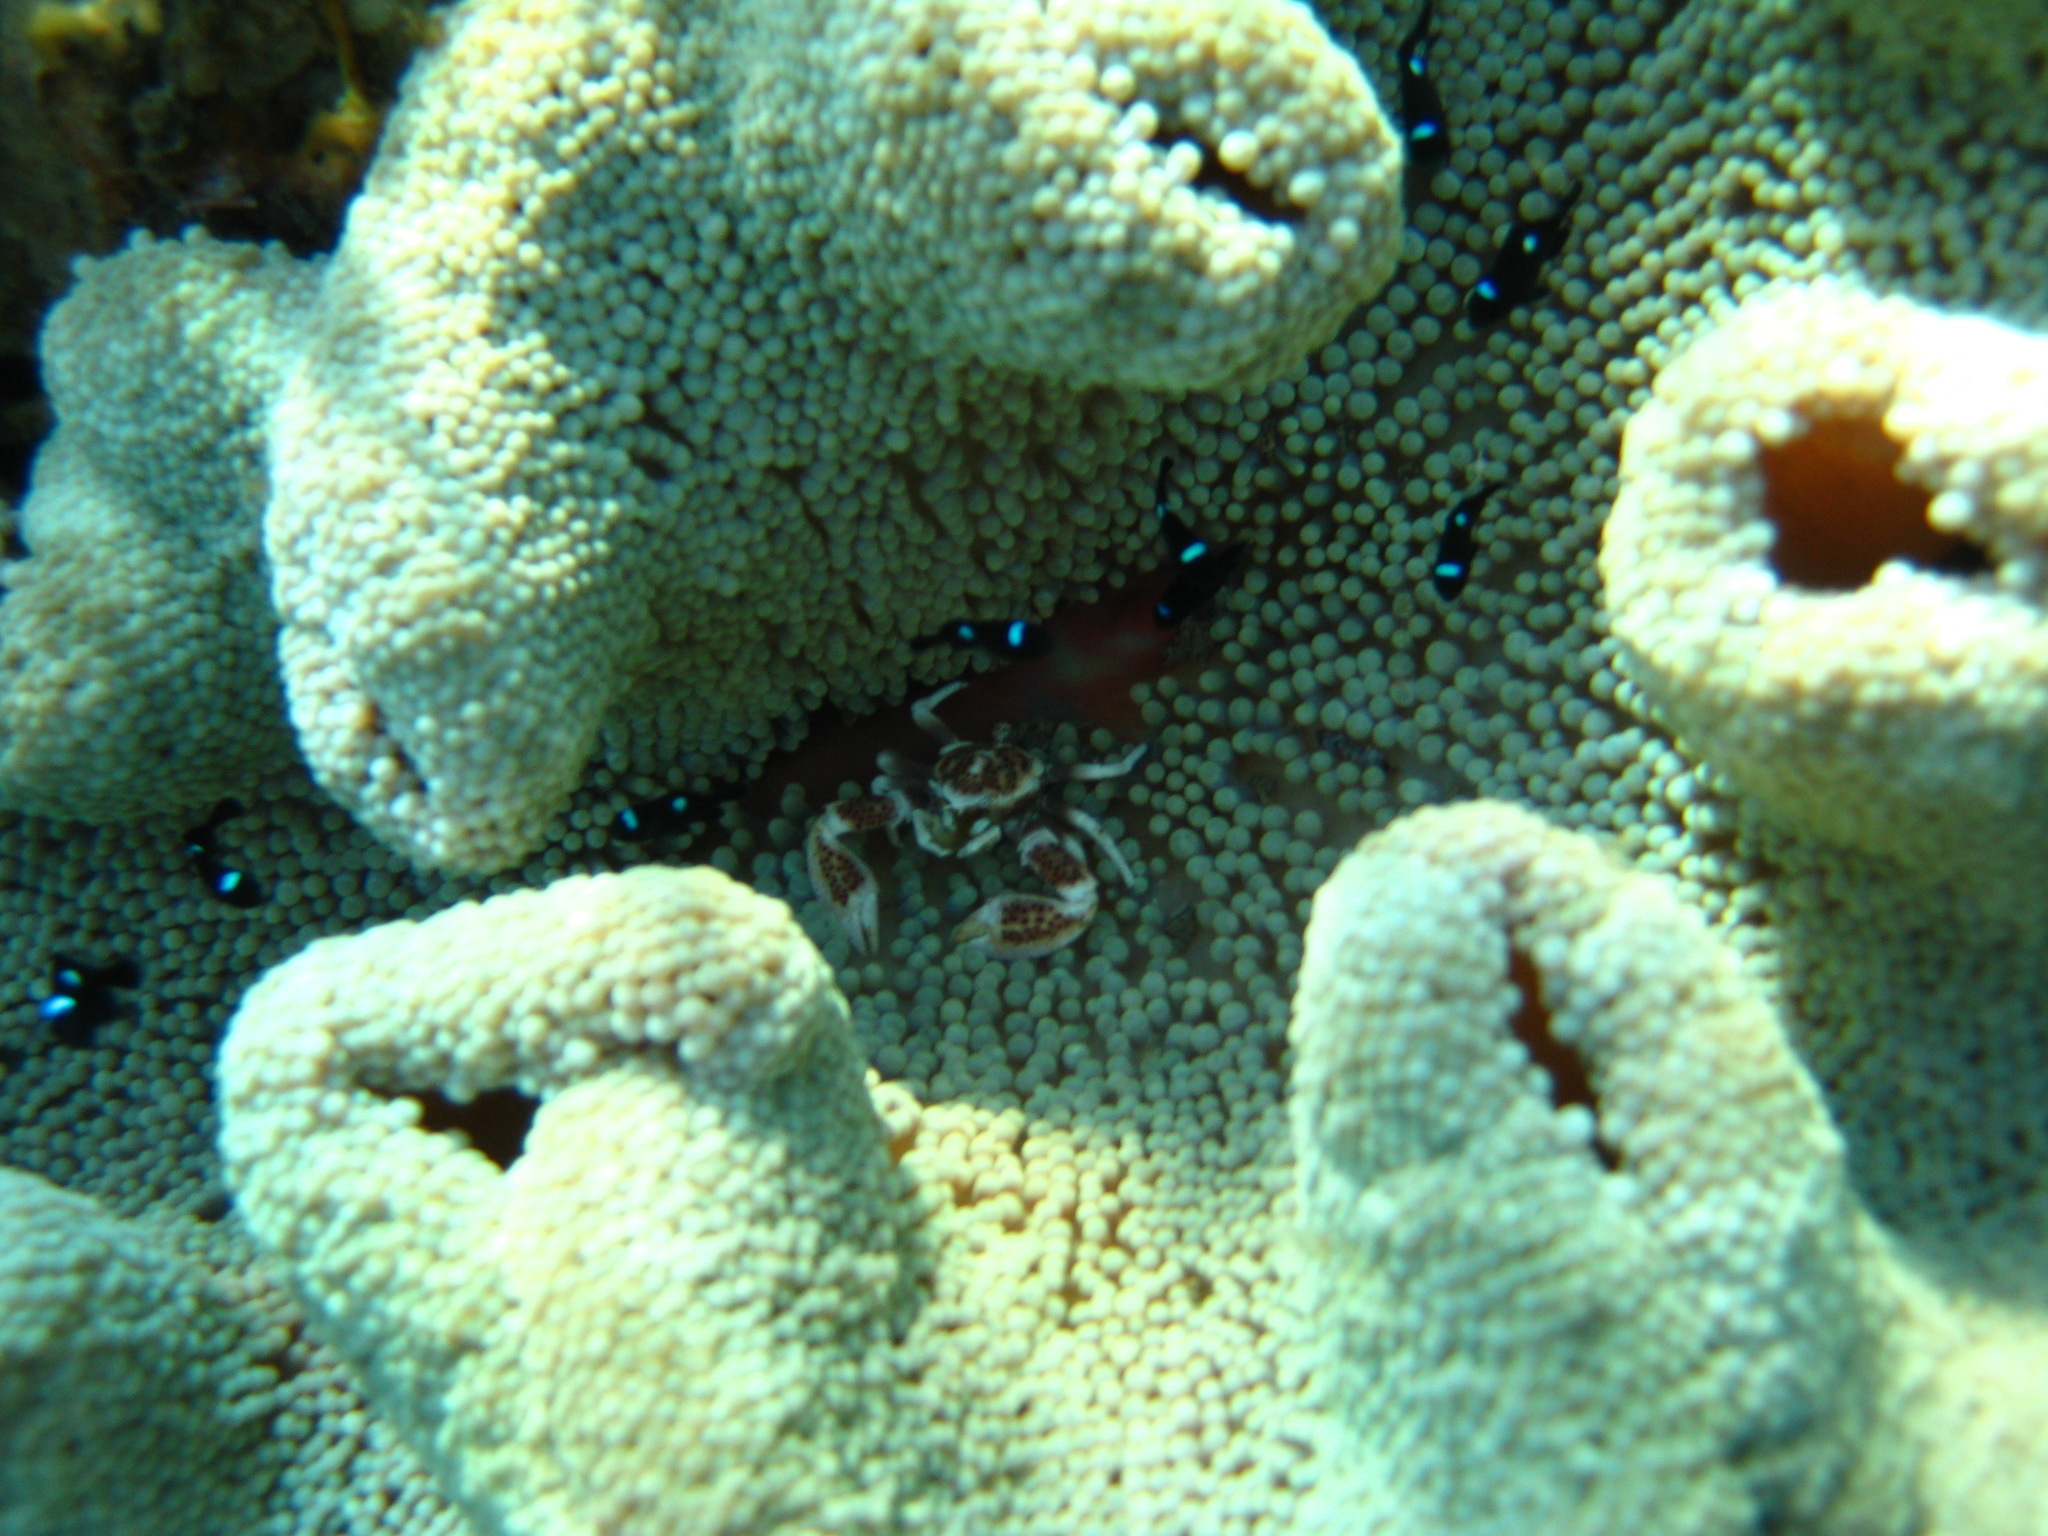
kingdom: Animalia
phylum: Arthropoda
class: Malacostraca
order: Decapoda
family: Porcellanidae
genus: Neopetrolisthes
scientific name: Neopetrolisthes maculatus
